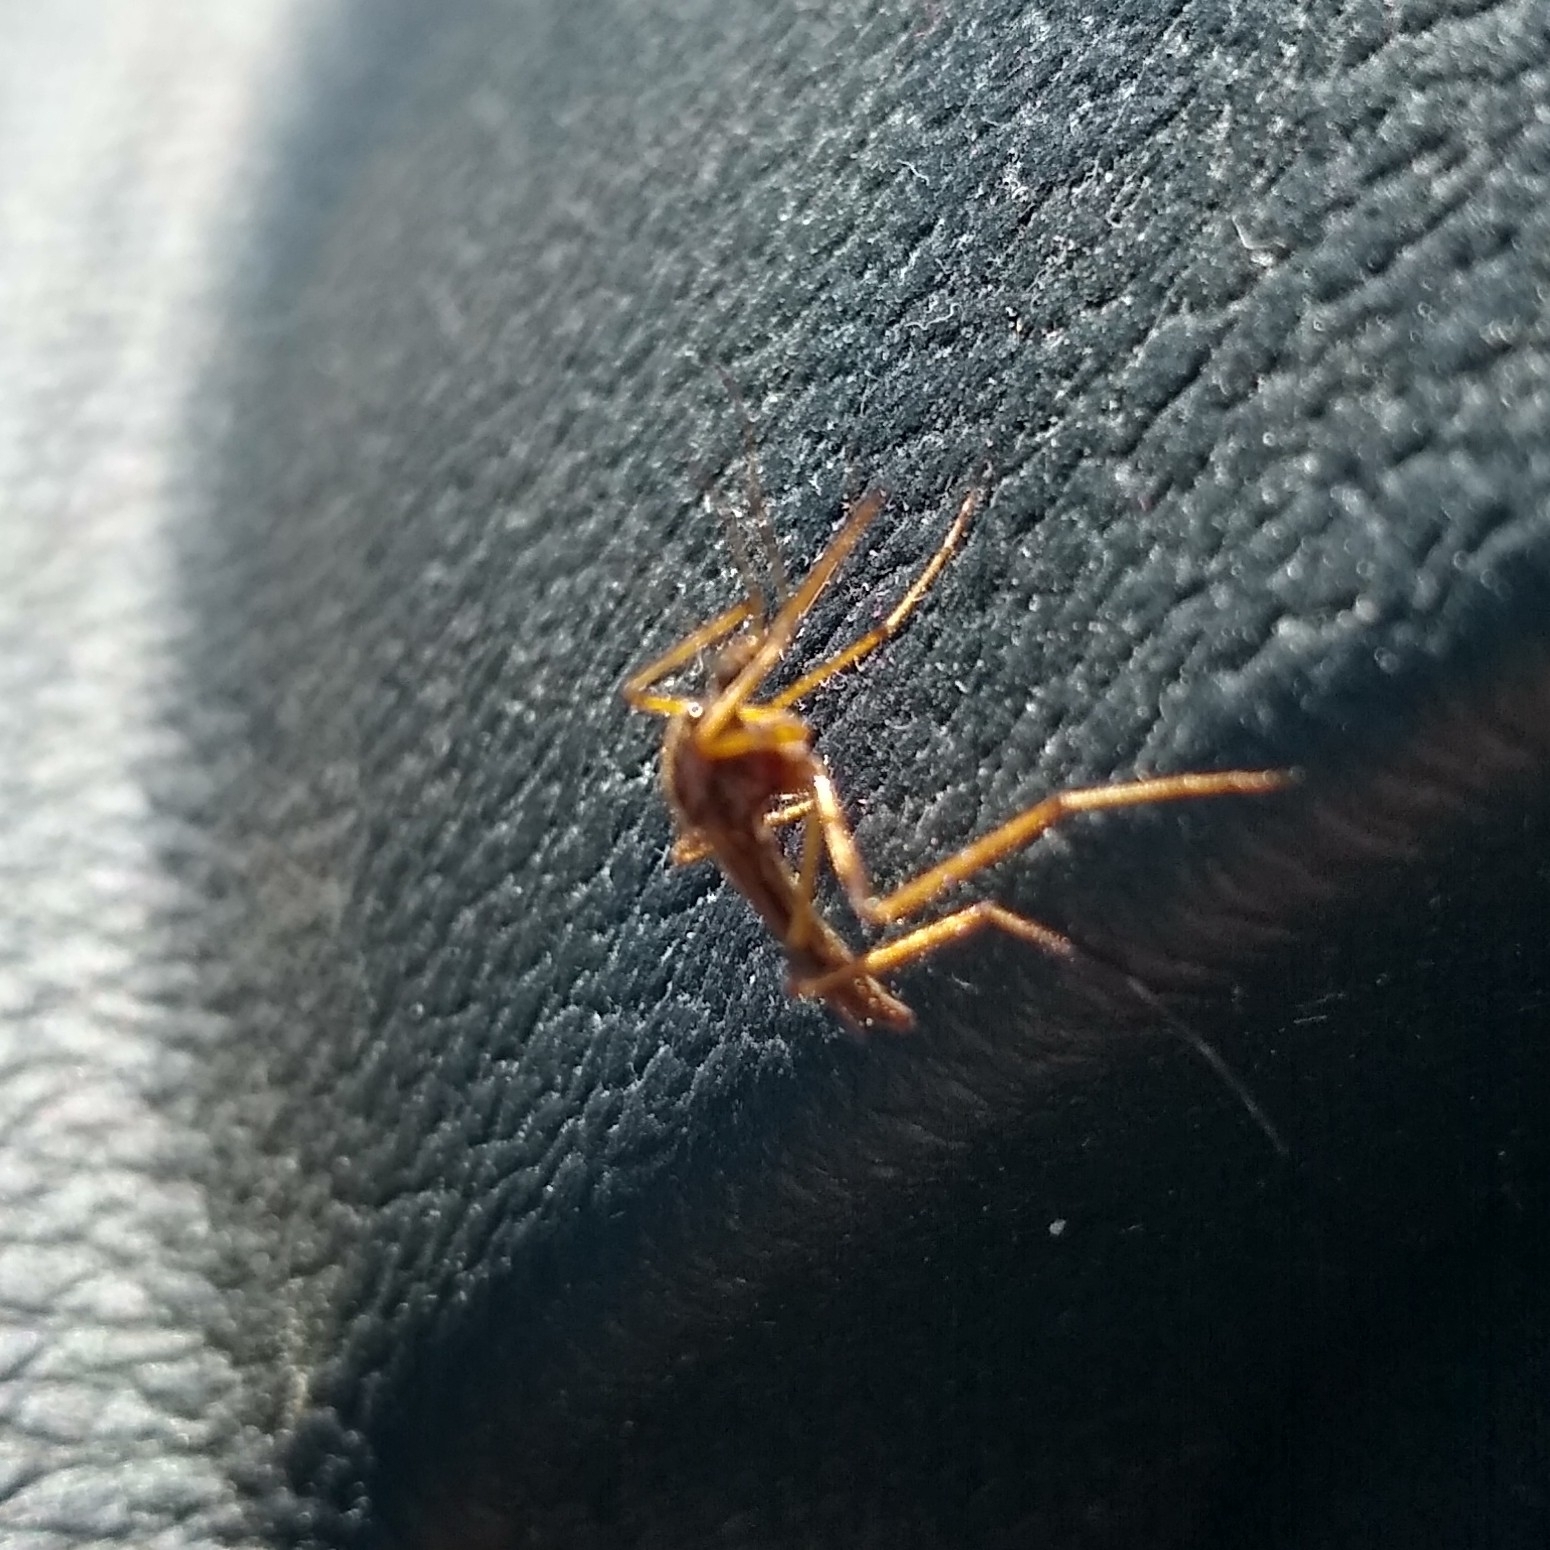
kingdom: Animalia
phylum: Arthropoda
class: Insecta
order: Diptera
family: Culicidae
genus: Psorophora
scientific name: Psorophora ciliata
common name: Gallinipper
